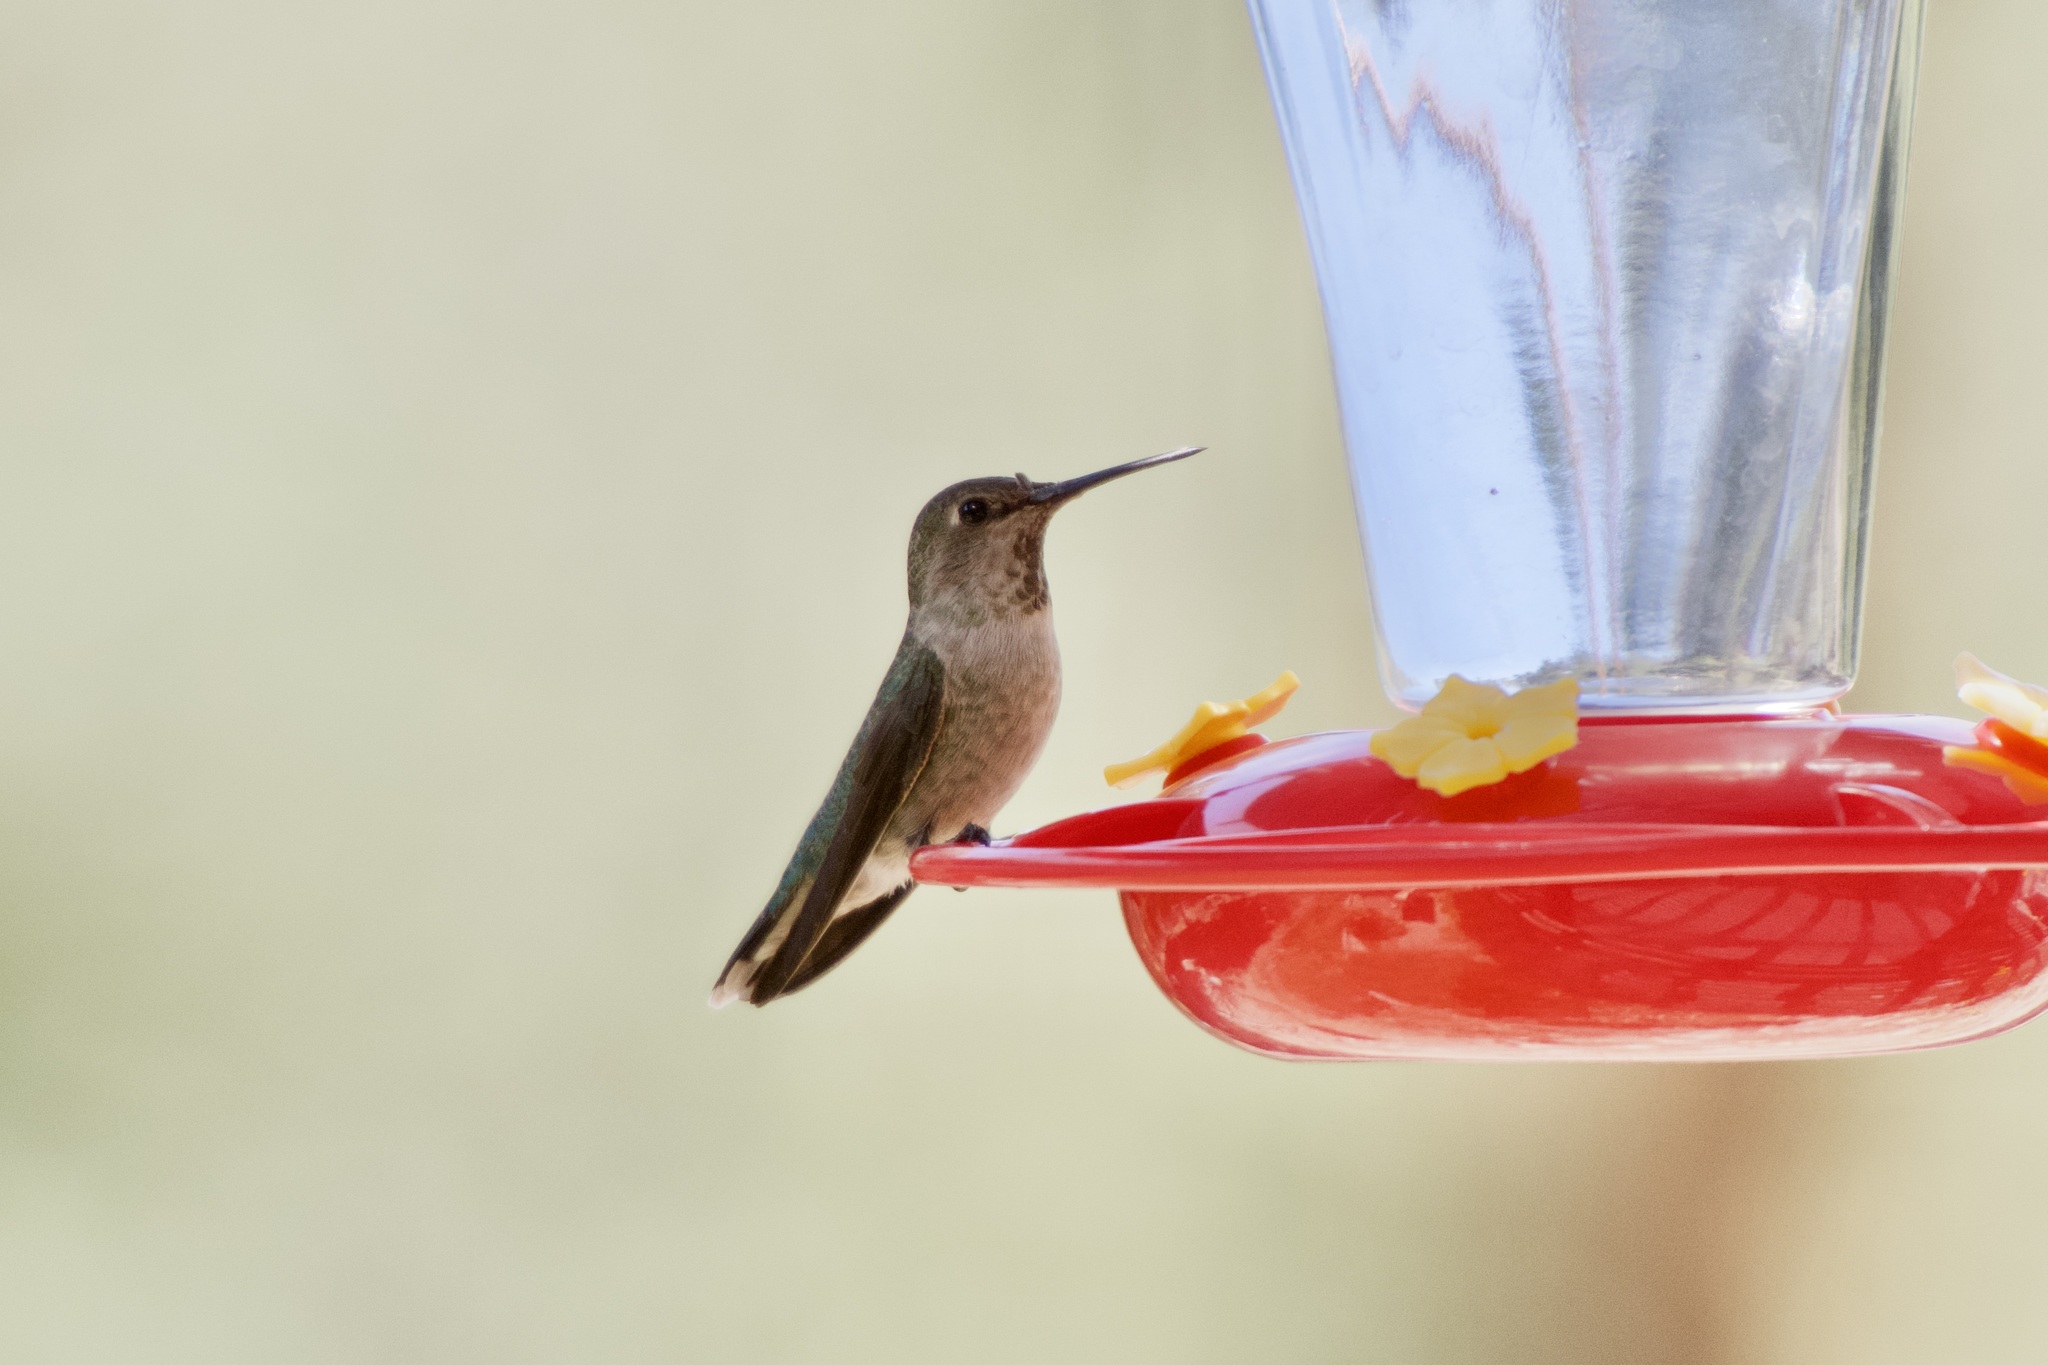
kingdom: Animalia
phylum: Chordata
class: Aves
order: Apodiformes
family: Trochilidae
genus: Calypte
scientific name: Calypte anna
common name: Anna's hummingbird
